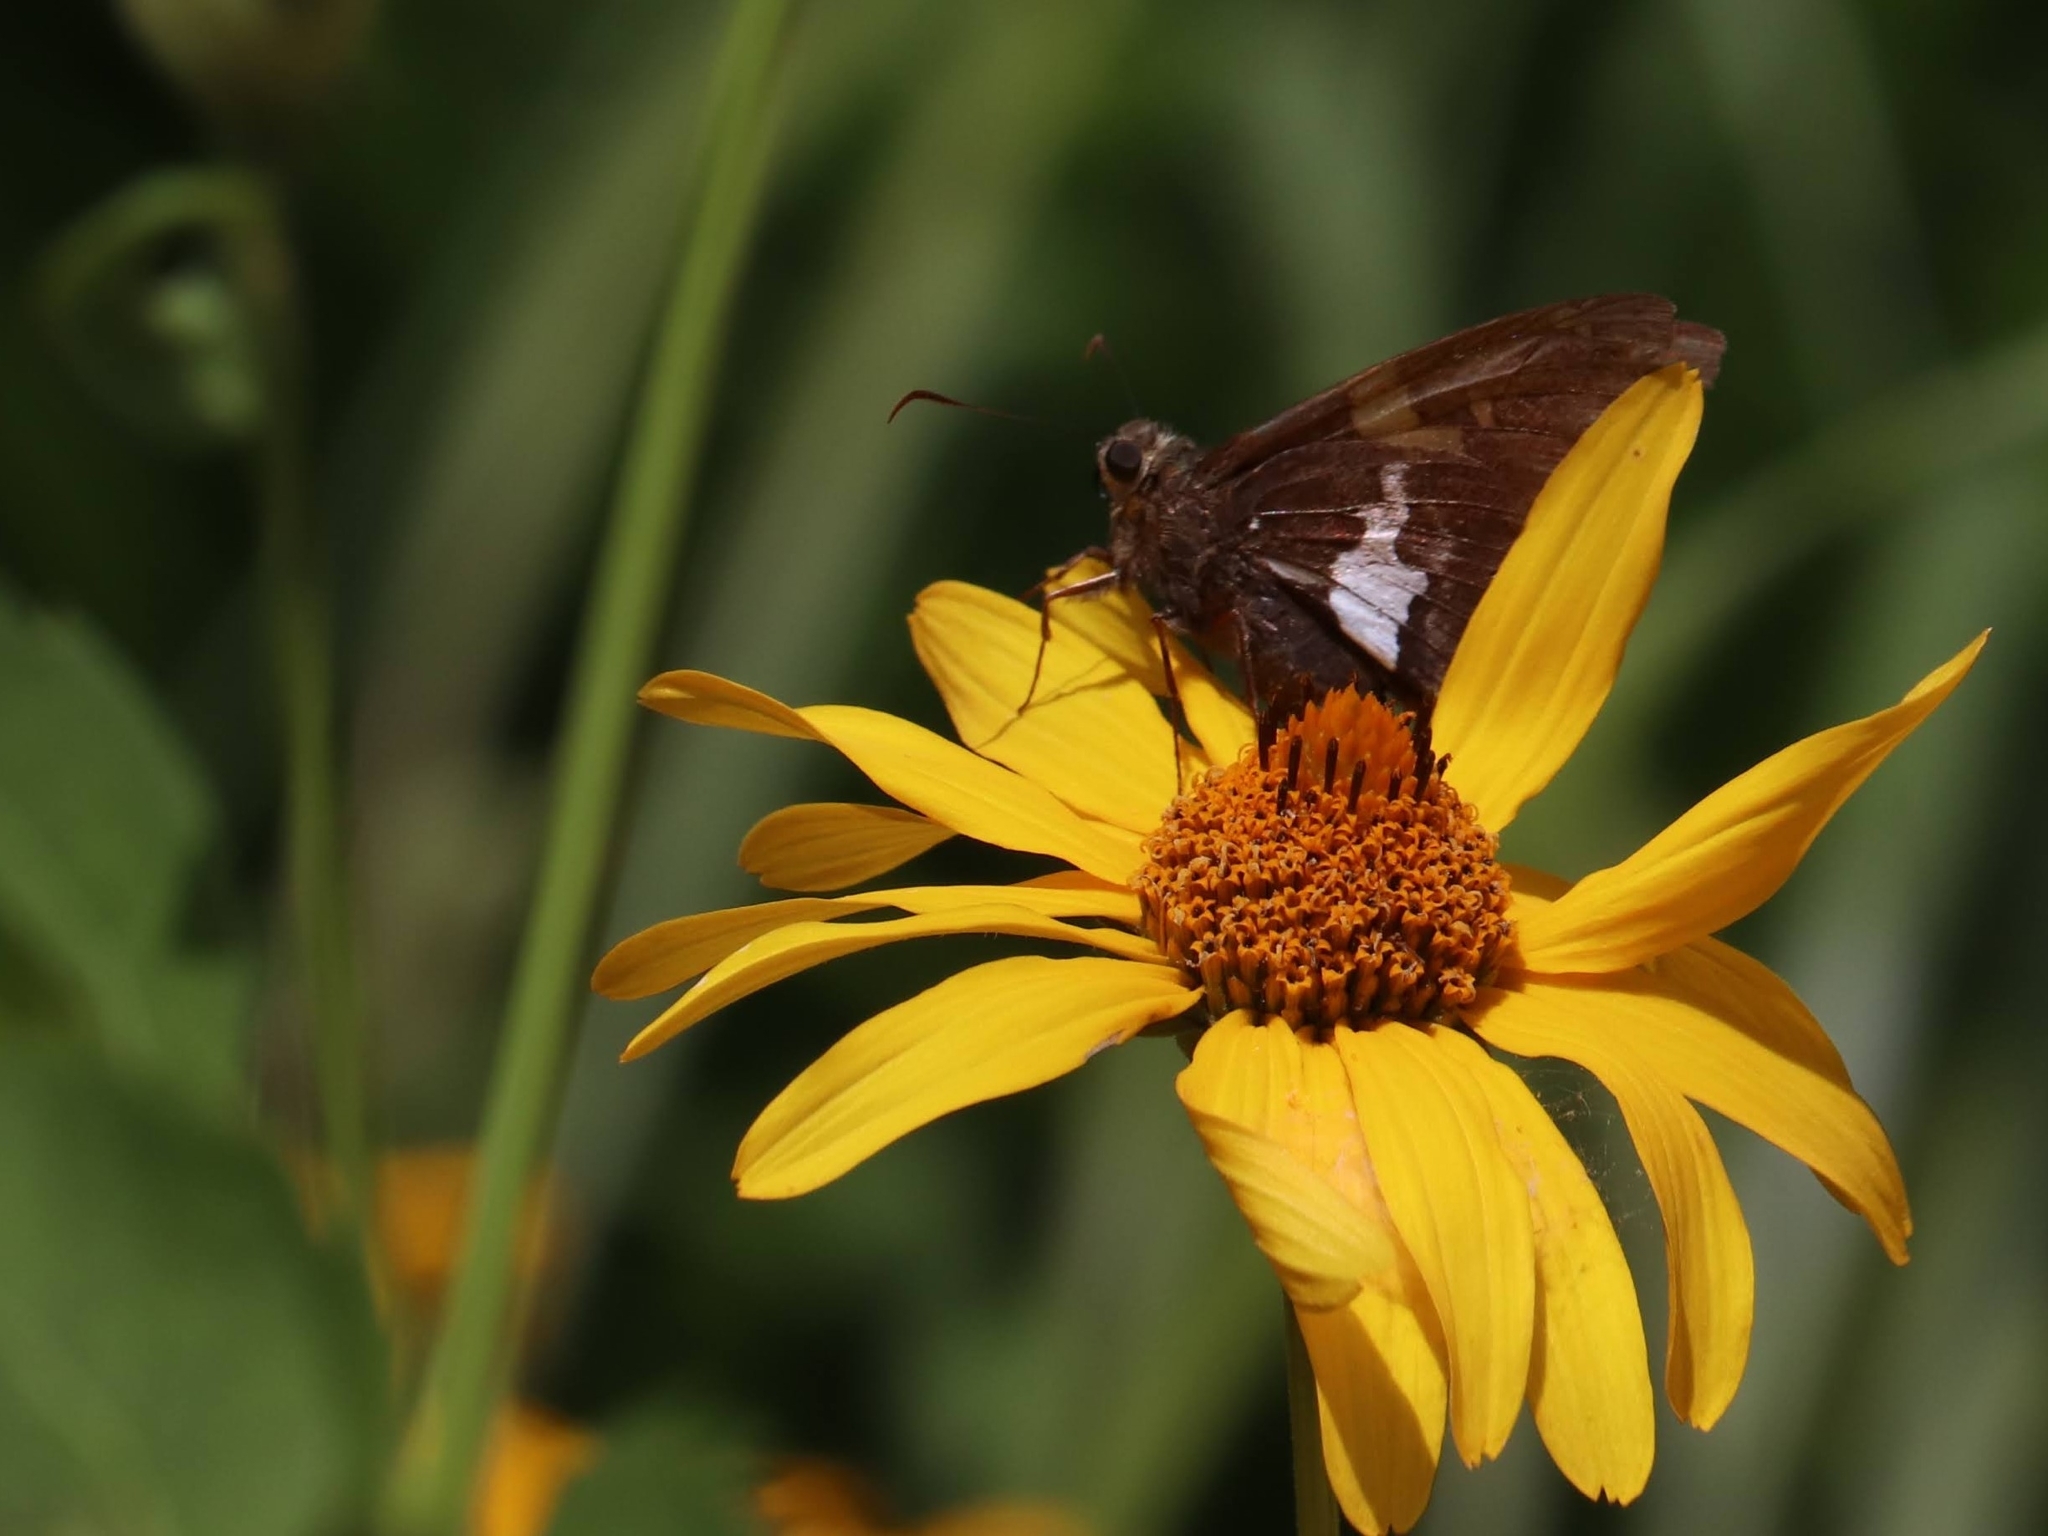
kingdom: Animalia
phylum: Arthropoda
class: Insecta
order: Lepidoptera
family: Hesperiidae
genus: Epargyreus
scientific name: Epargyreus clarus
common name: Silver-spotted skipper
